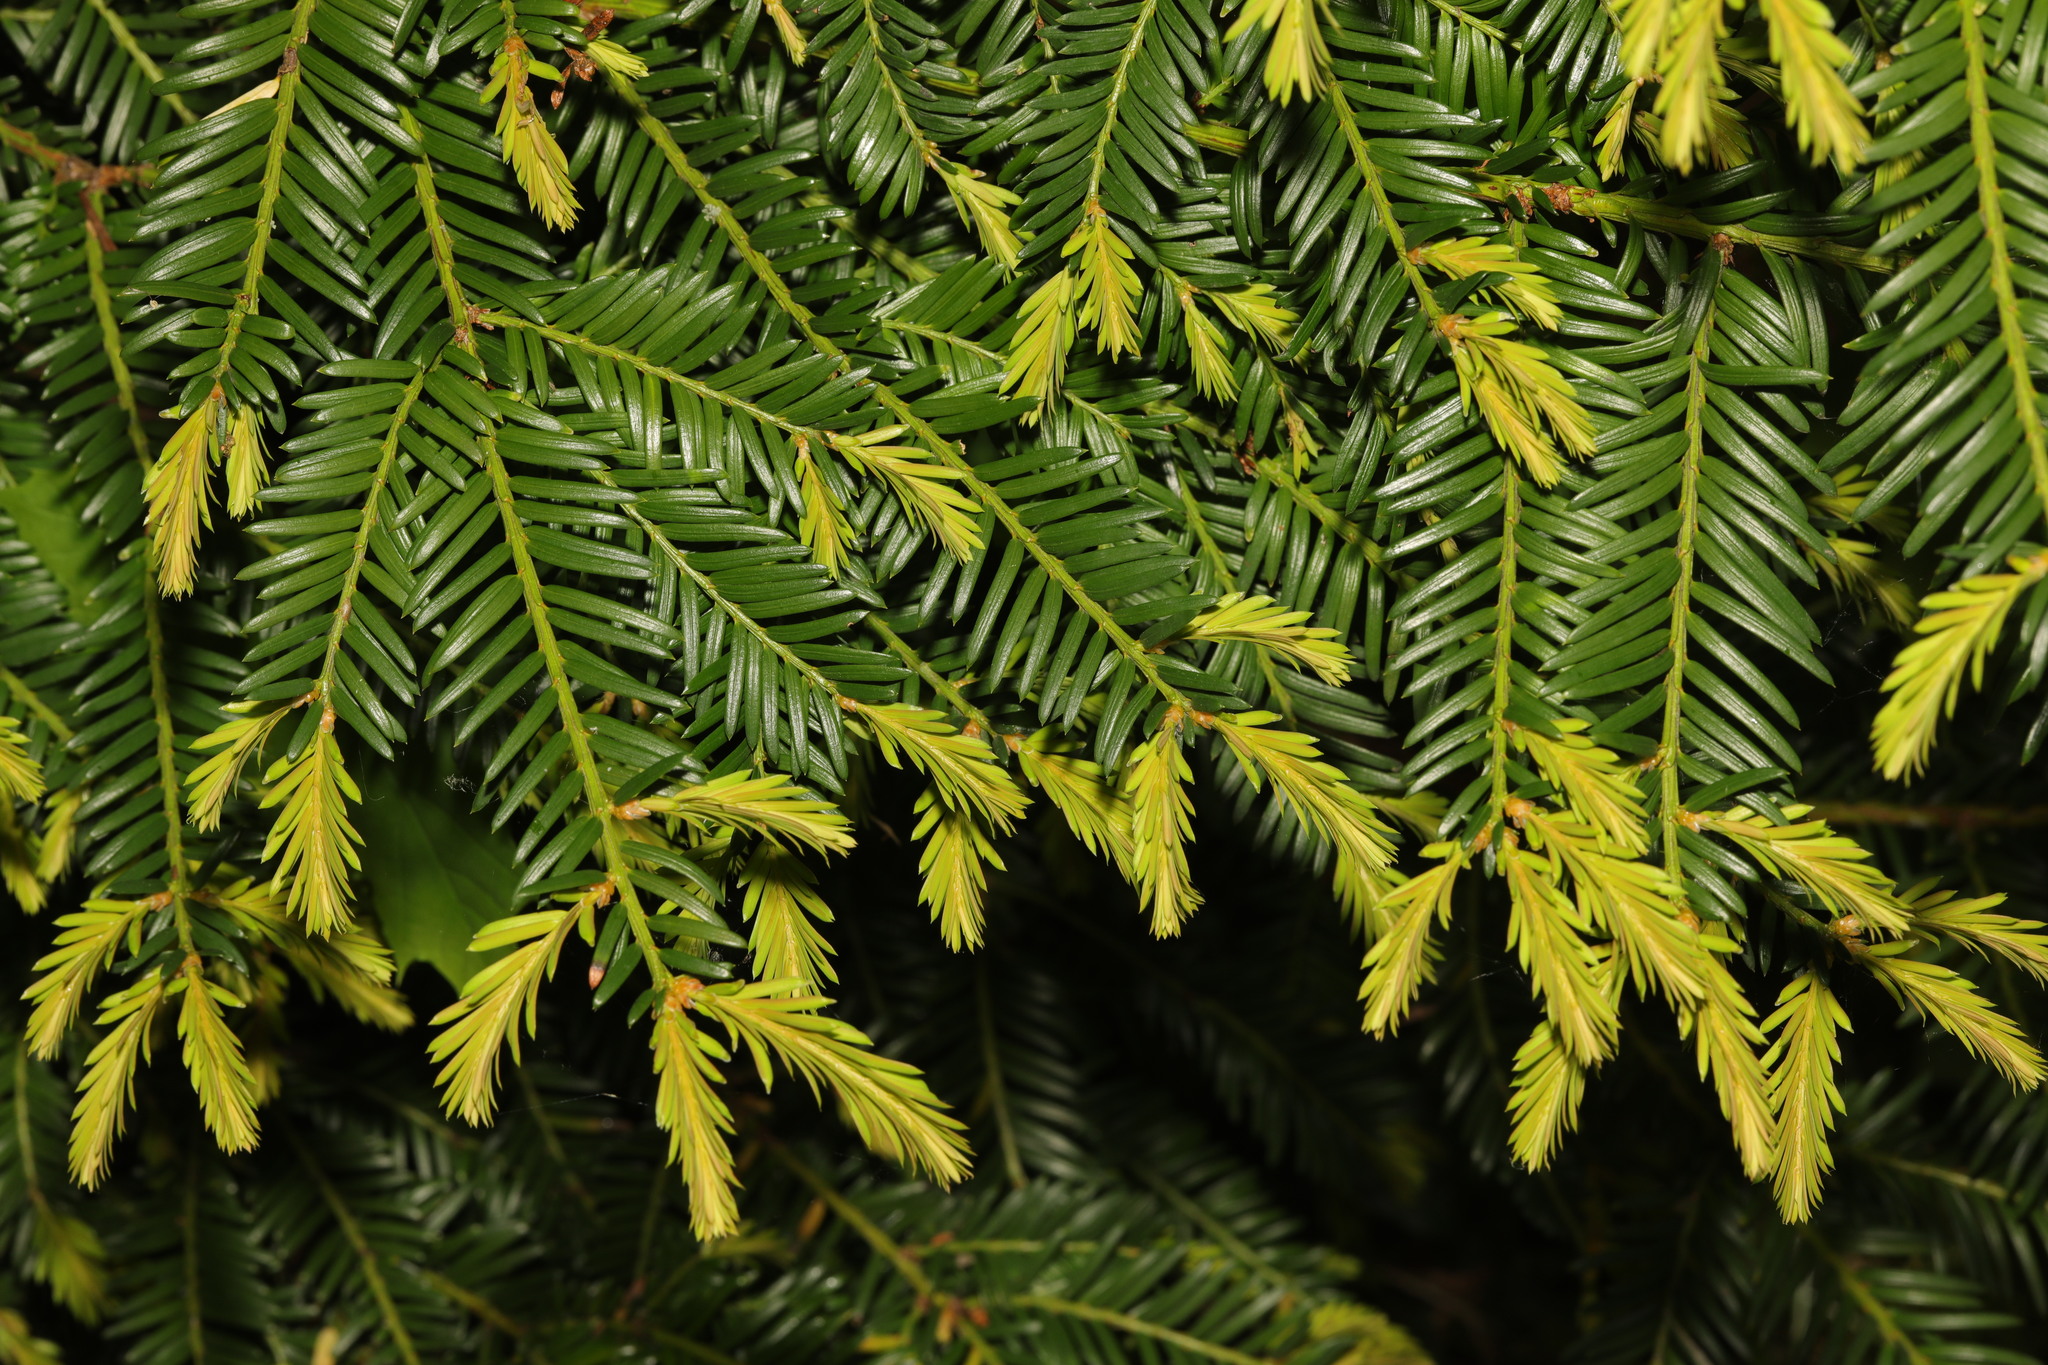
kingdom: Plantae
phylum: Tracheophyta
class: Pinopsida
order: Pinales
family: Taxaceae
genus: Taxus
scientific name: Taxus baccata
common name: Yew
